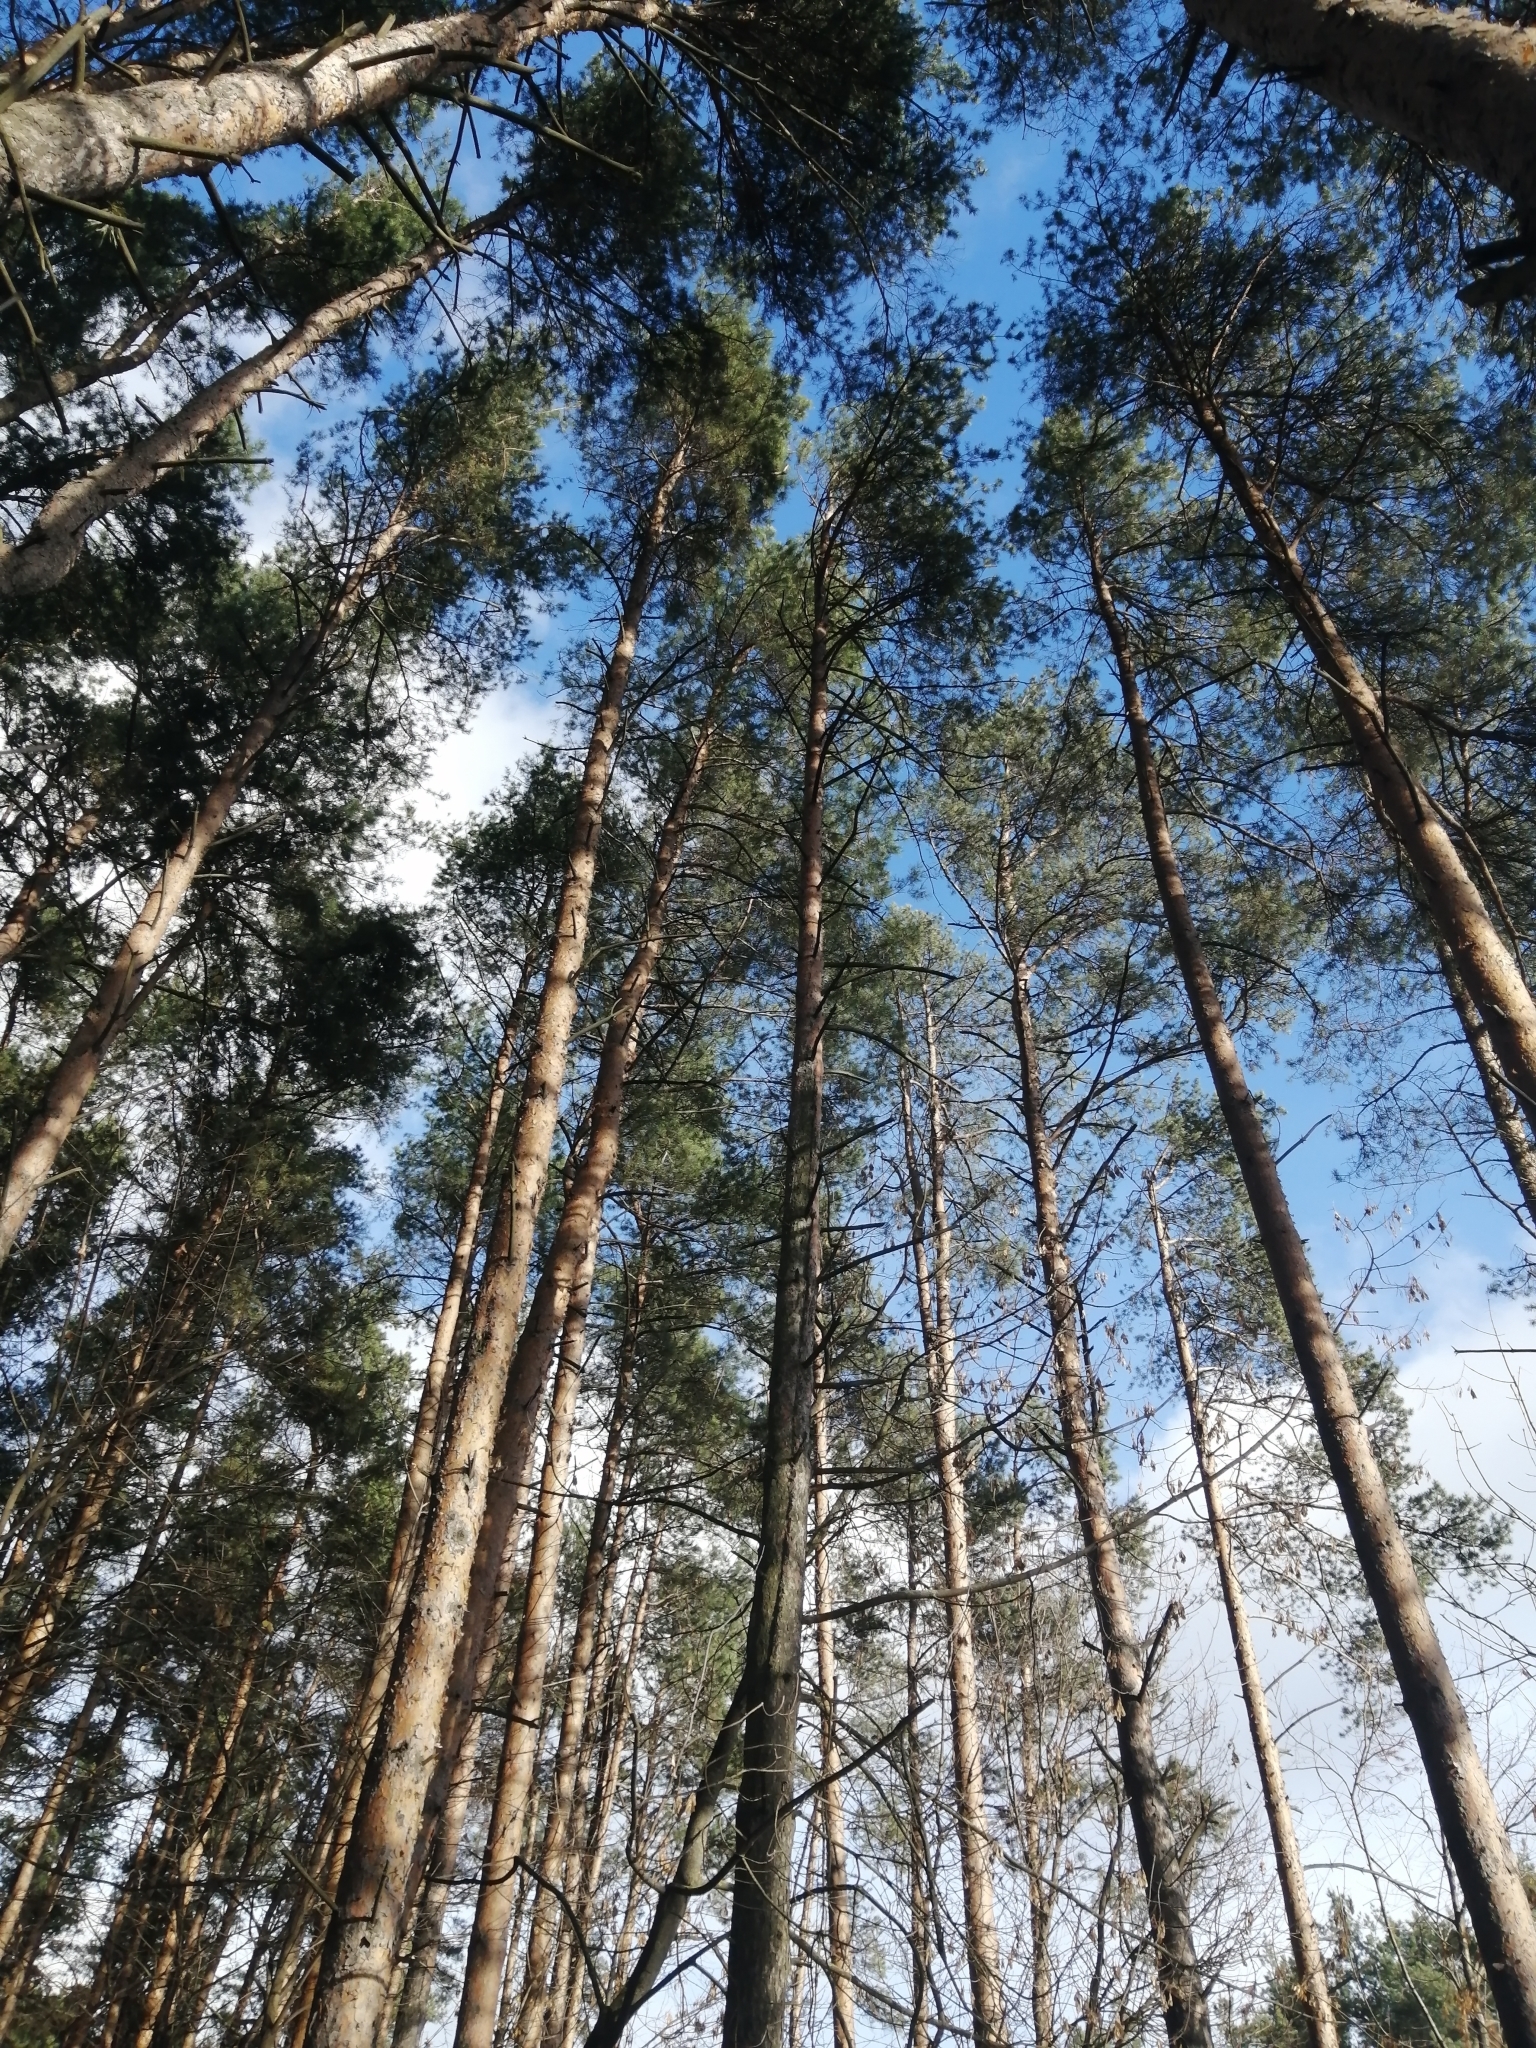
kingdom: Plantae
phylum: Tracheophyta
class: Pinopsida
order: Pinales
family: Pinaceae
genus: Pinus
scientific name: Pinus sylvestris
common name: Scots pine
